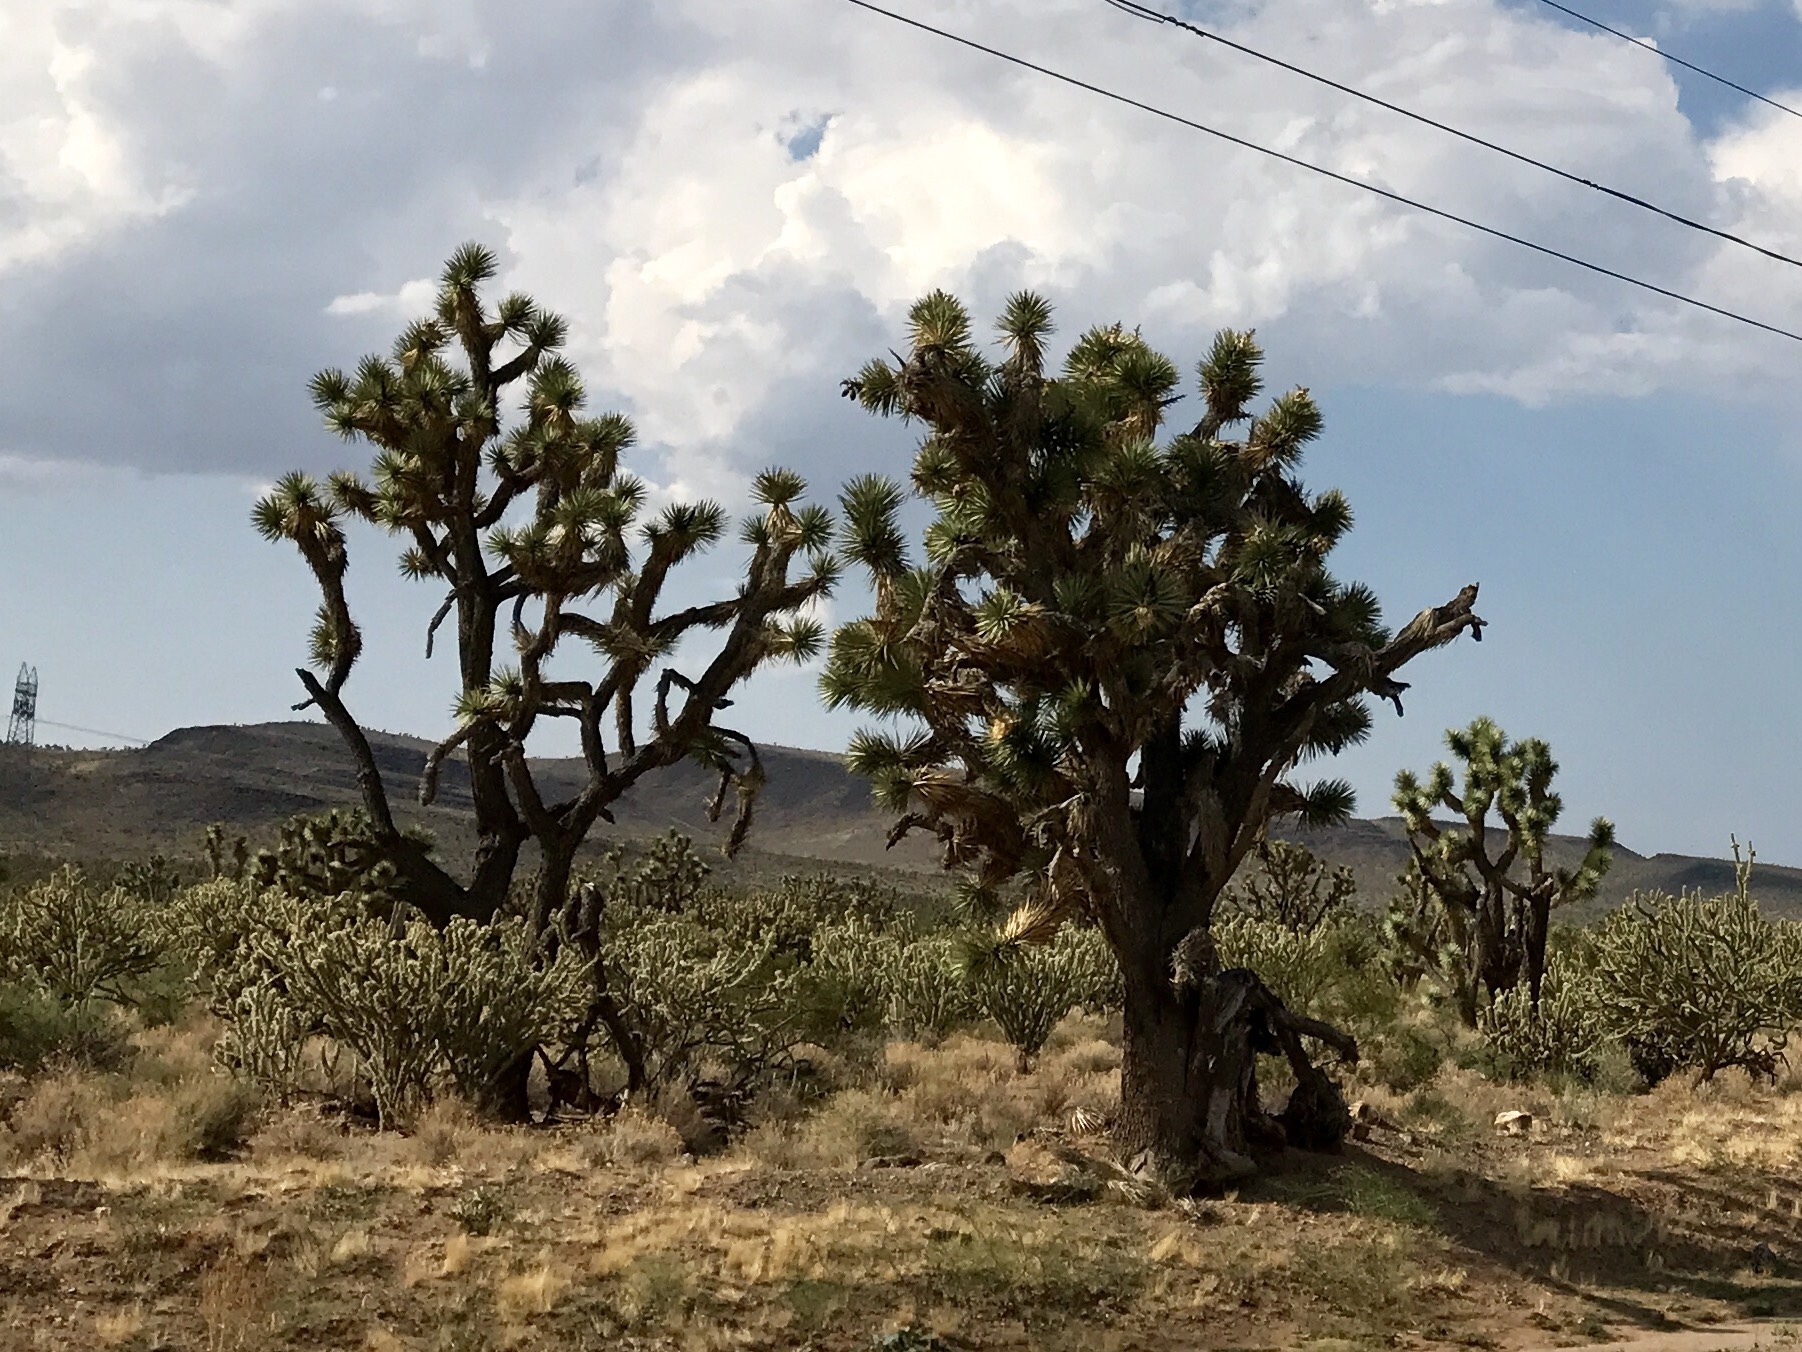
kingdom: Plantae
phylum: Tracheophyta
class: Liliopsida
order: Asparagales
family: Asparagaceae
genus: Yucca
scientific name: Yucca brevifolia
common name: Joshua tree
